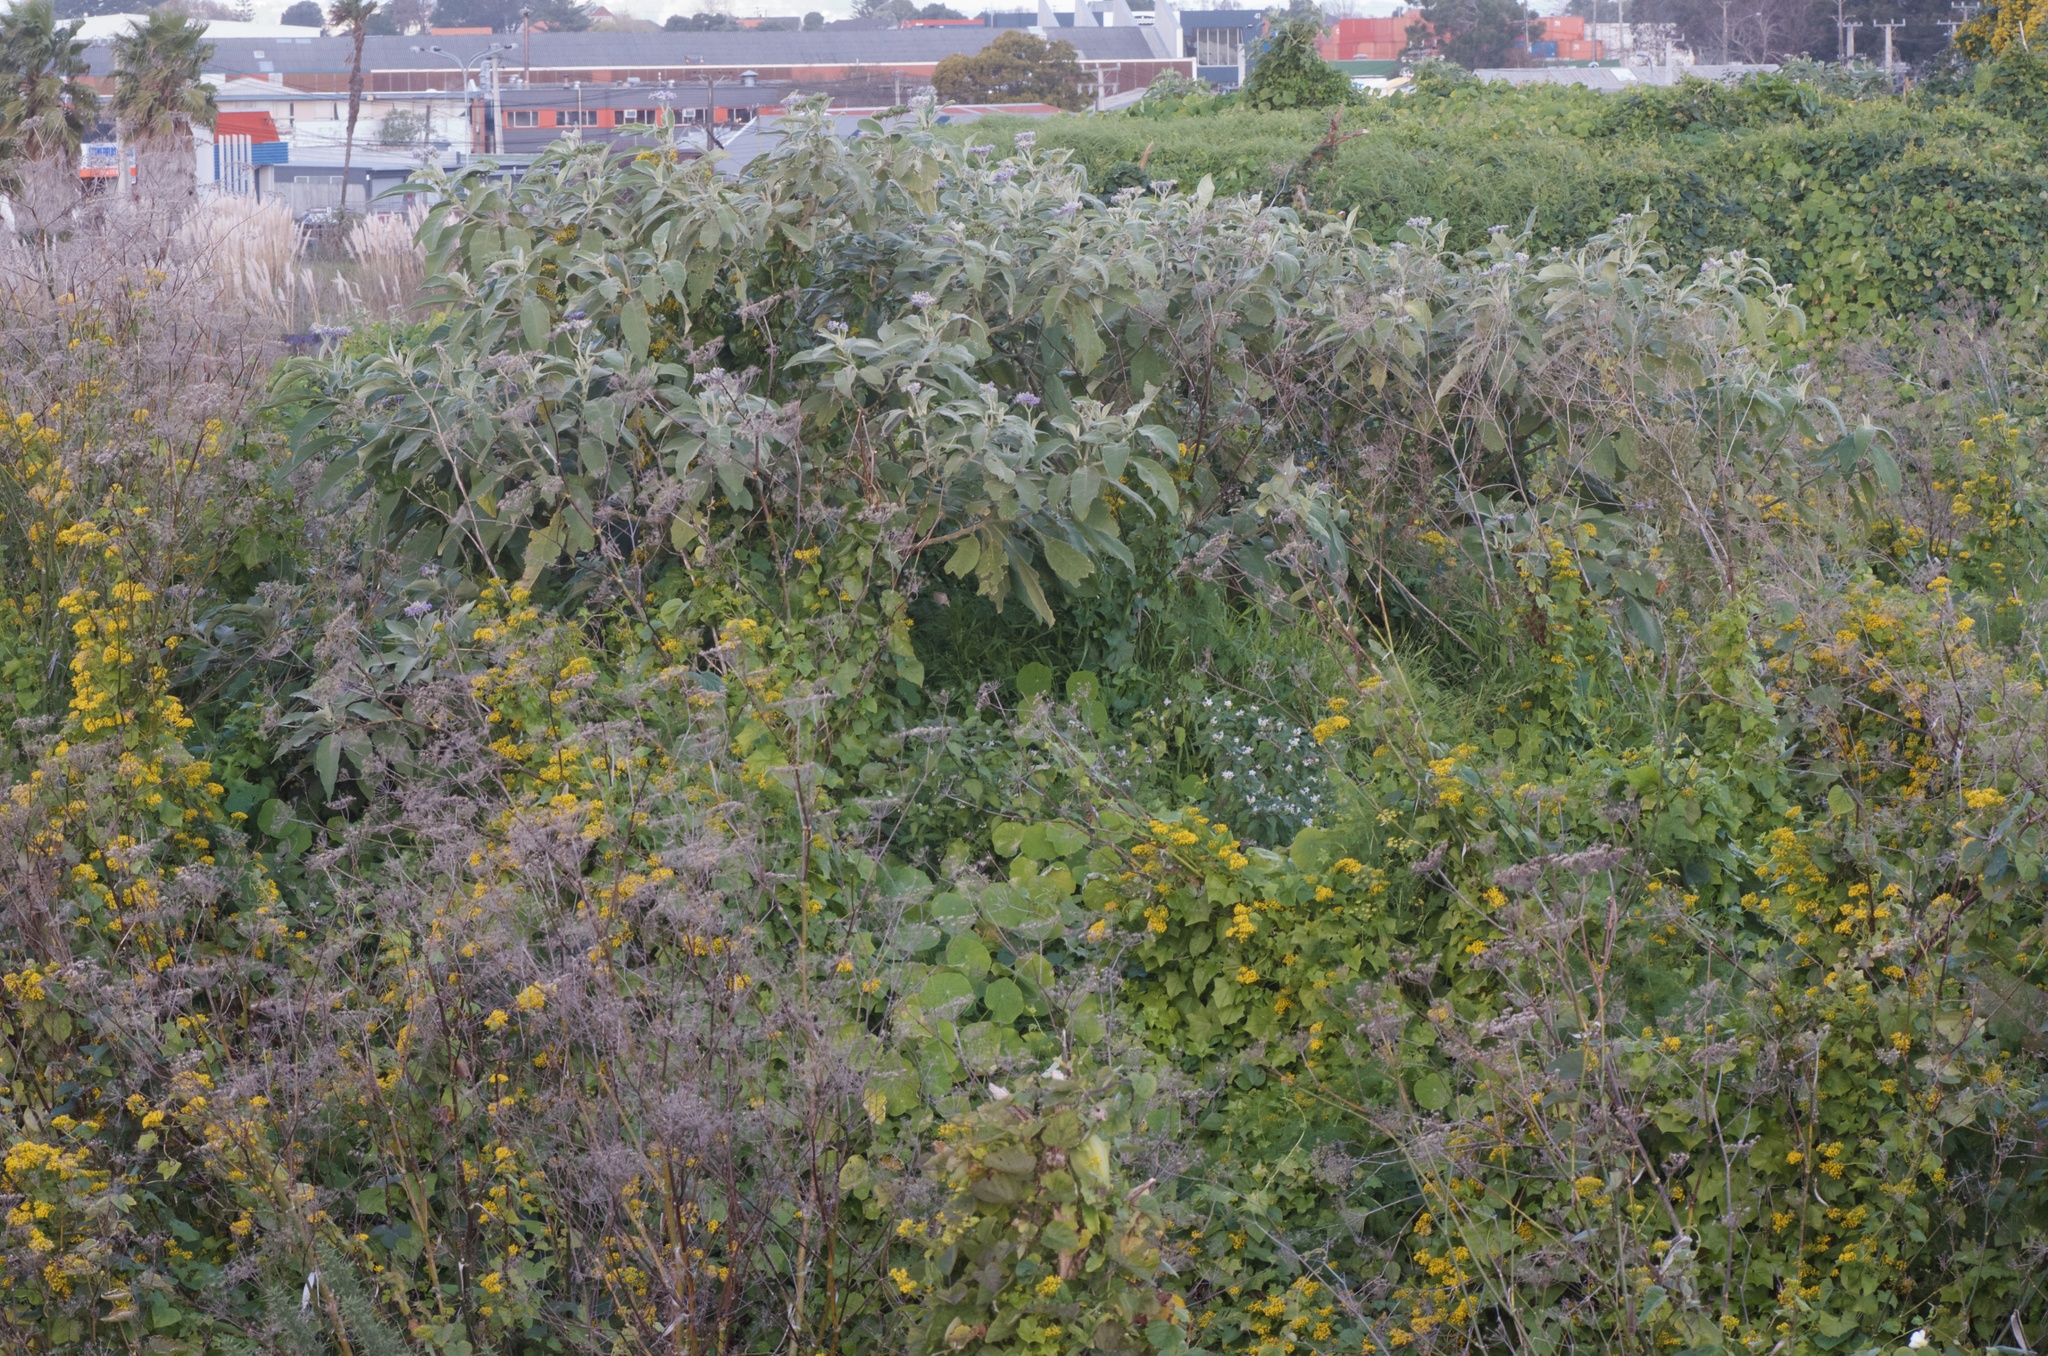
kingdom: Plantae
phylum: Tracheophyta
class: Magnoliopsida
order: Solanales
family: Solanaceae
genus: Solanum
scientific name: Solanum mauritianum
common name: Earleaf nightshade
